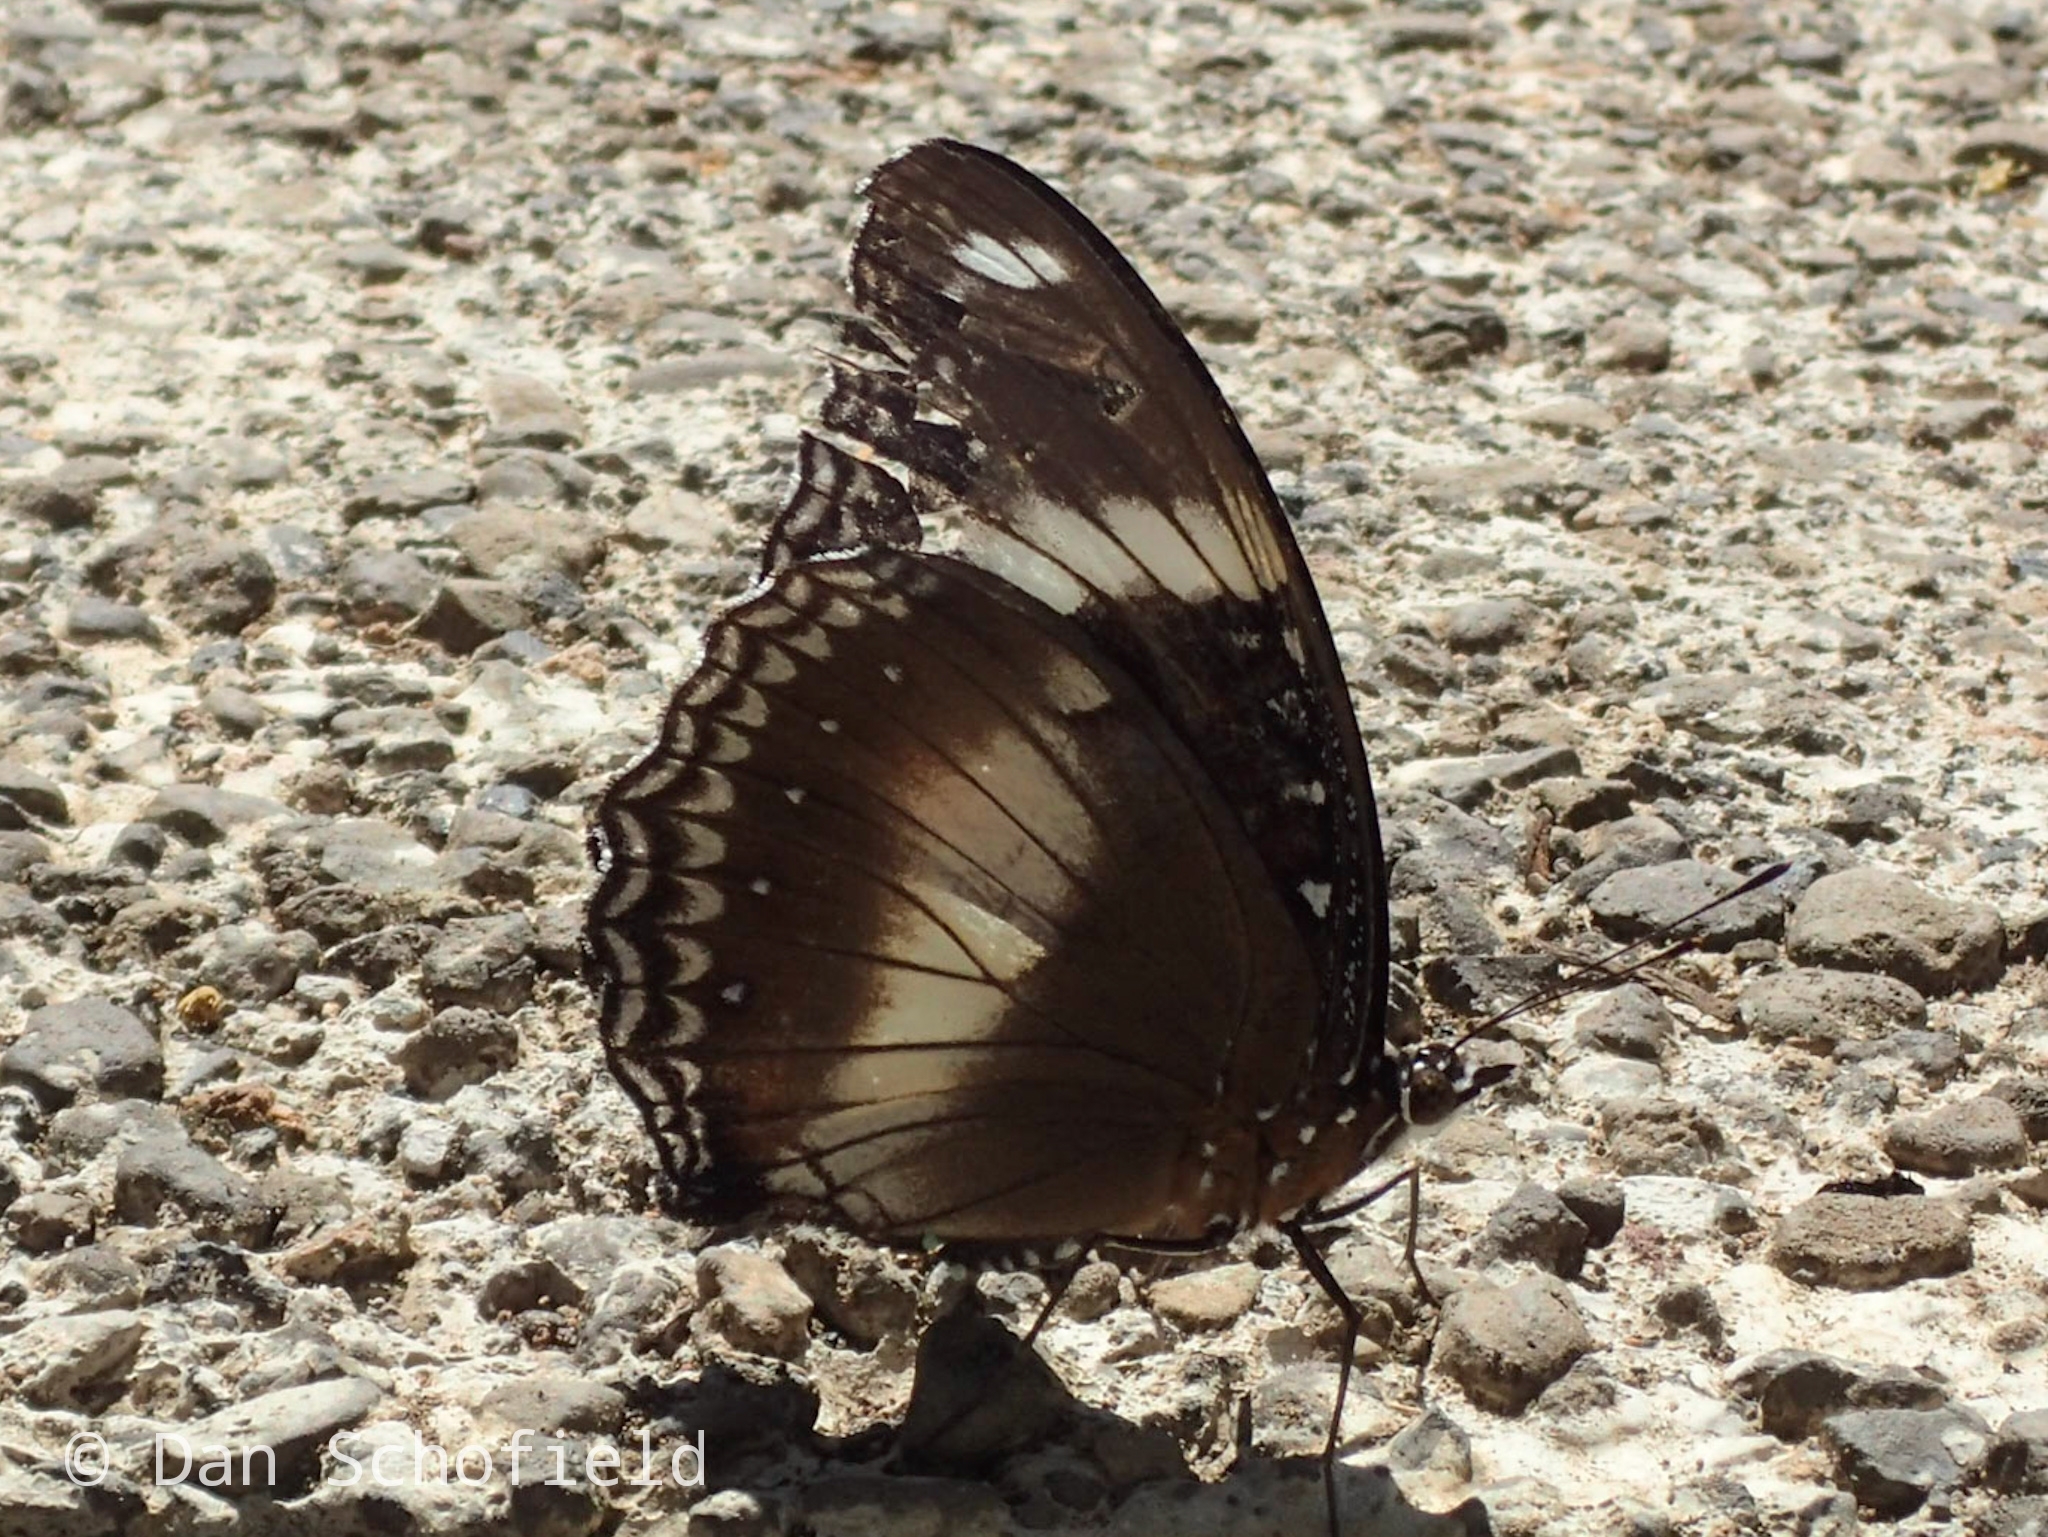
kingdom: Animalia
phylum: Arthropoda
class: Insecta
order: Lepidoptera
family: Nymphalidae
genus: Hypolimnas
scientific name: Hypolimnas bolina
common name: Great eggfly
